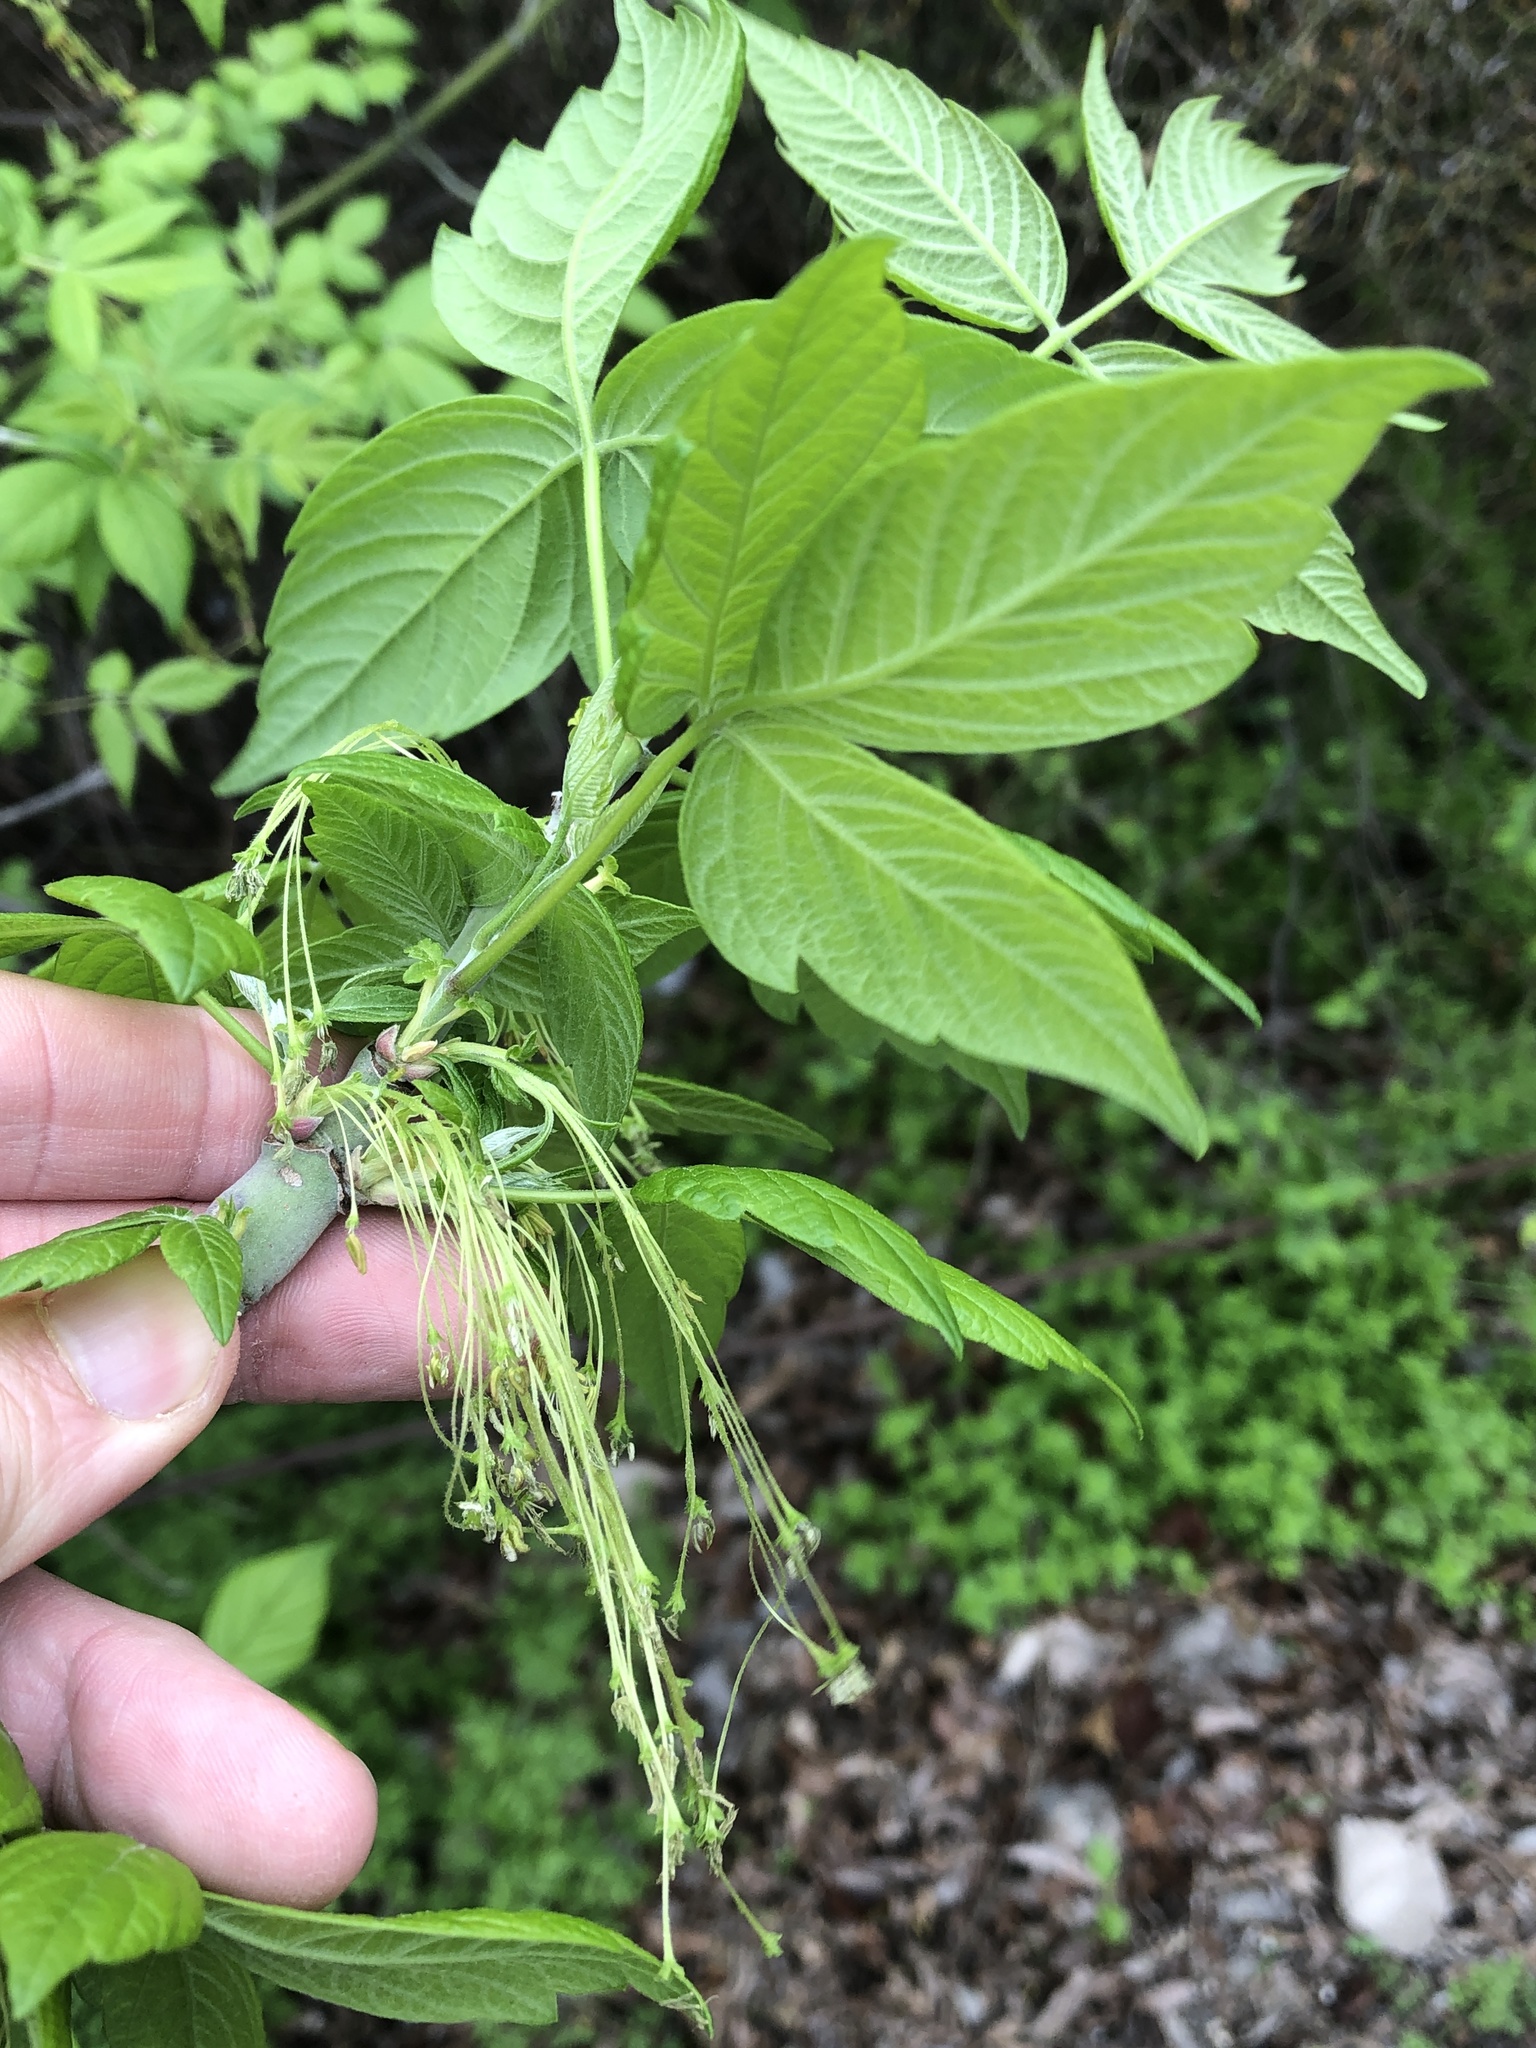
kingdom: Plantae
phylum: Tracheophyta
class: Magnoliopsida
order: Sapindales
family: Sapindaceae
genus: Acer
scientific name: Acer negundo
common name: Ashleaf maple
